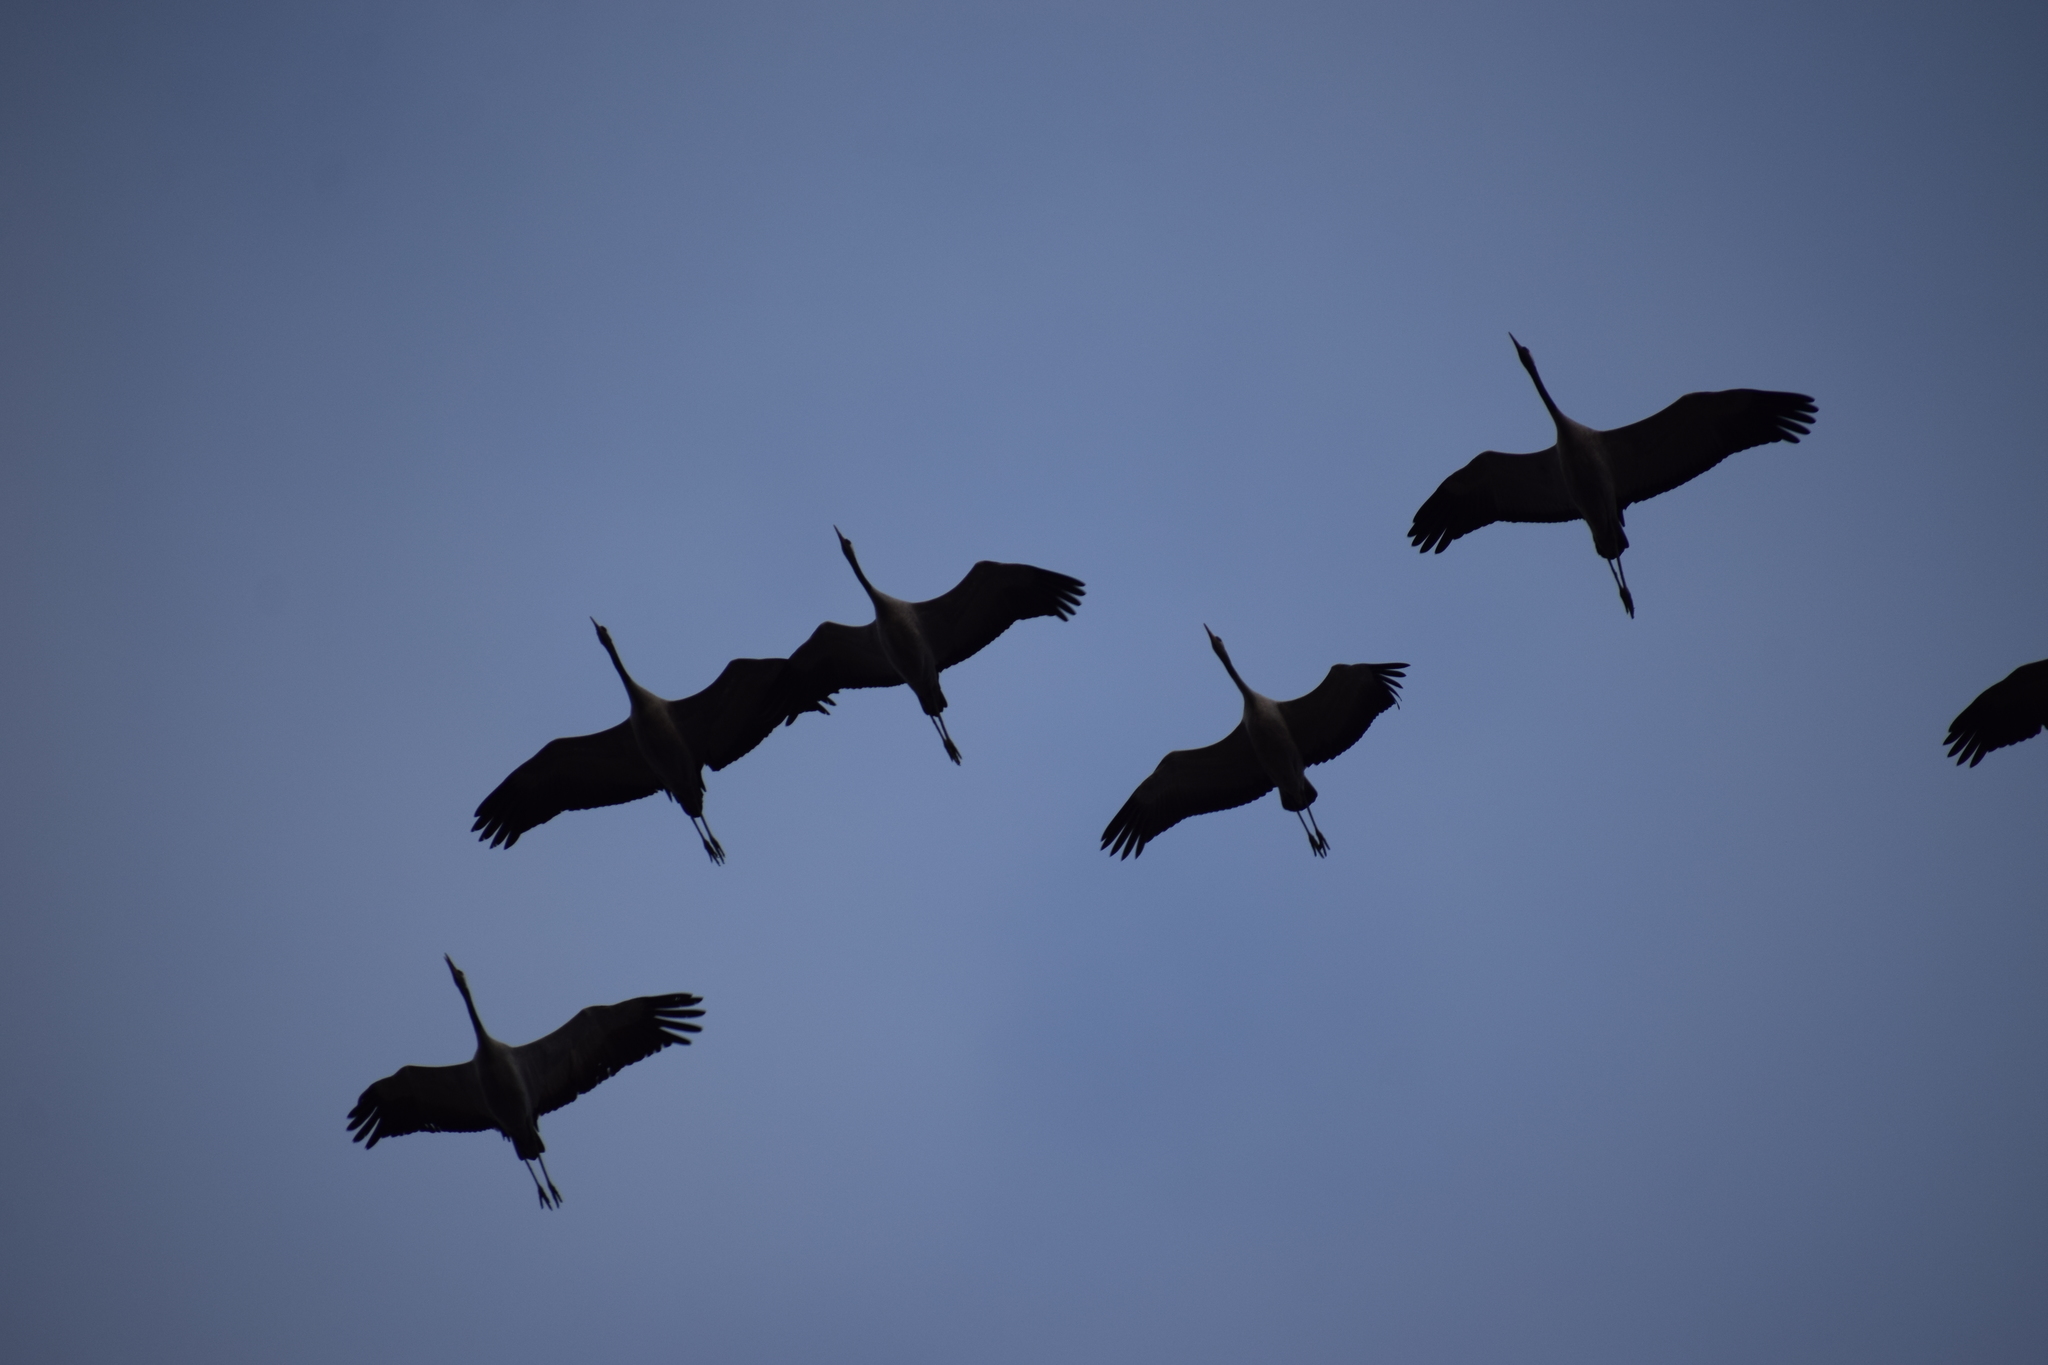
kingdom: Animalia
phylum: Chordata
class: Aves
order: Gruiformes
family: Gruidae
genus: Grus
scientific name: Grus grus
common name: Common crane
